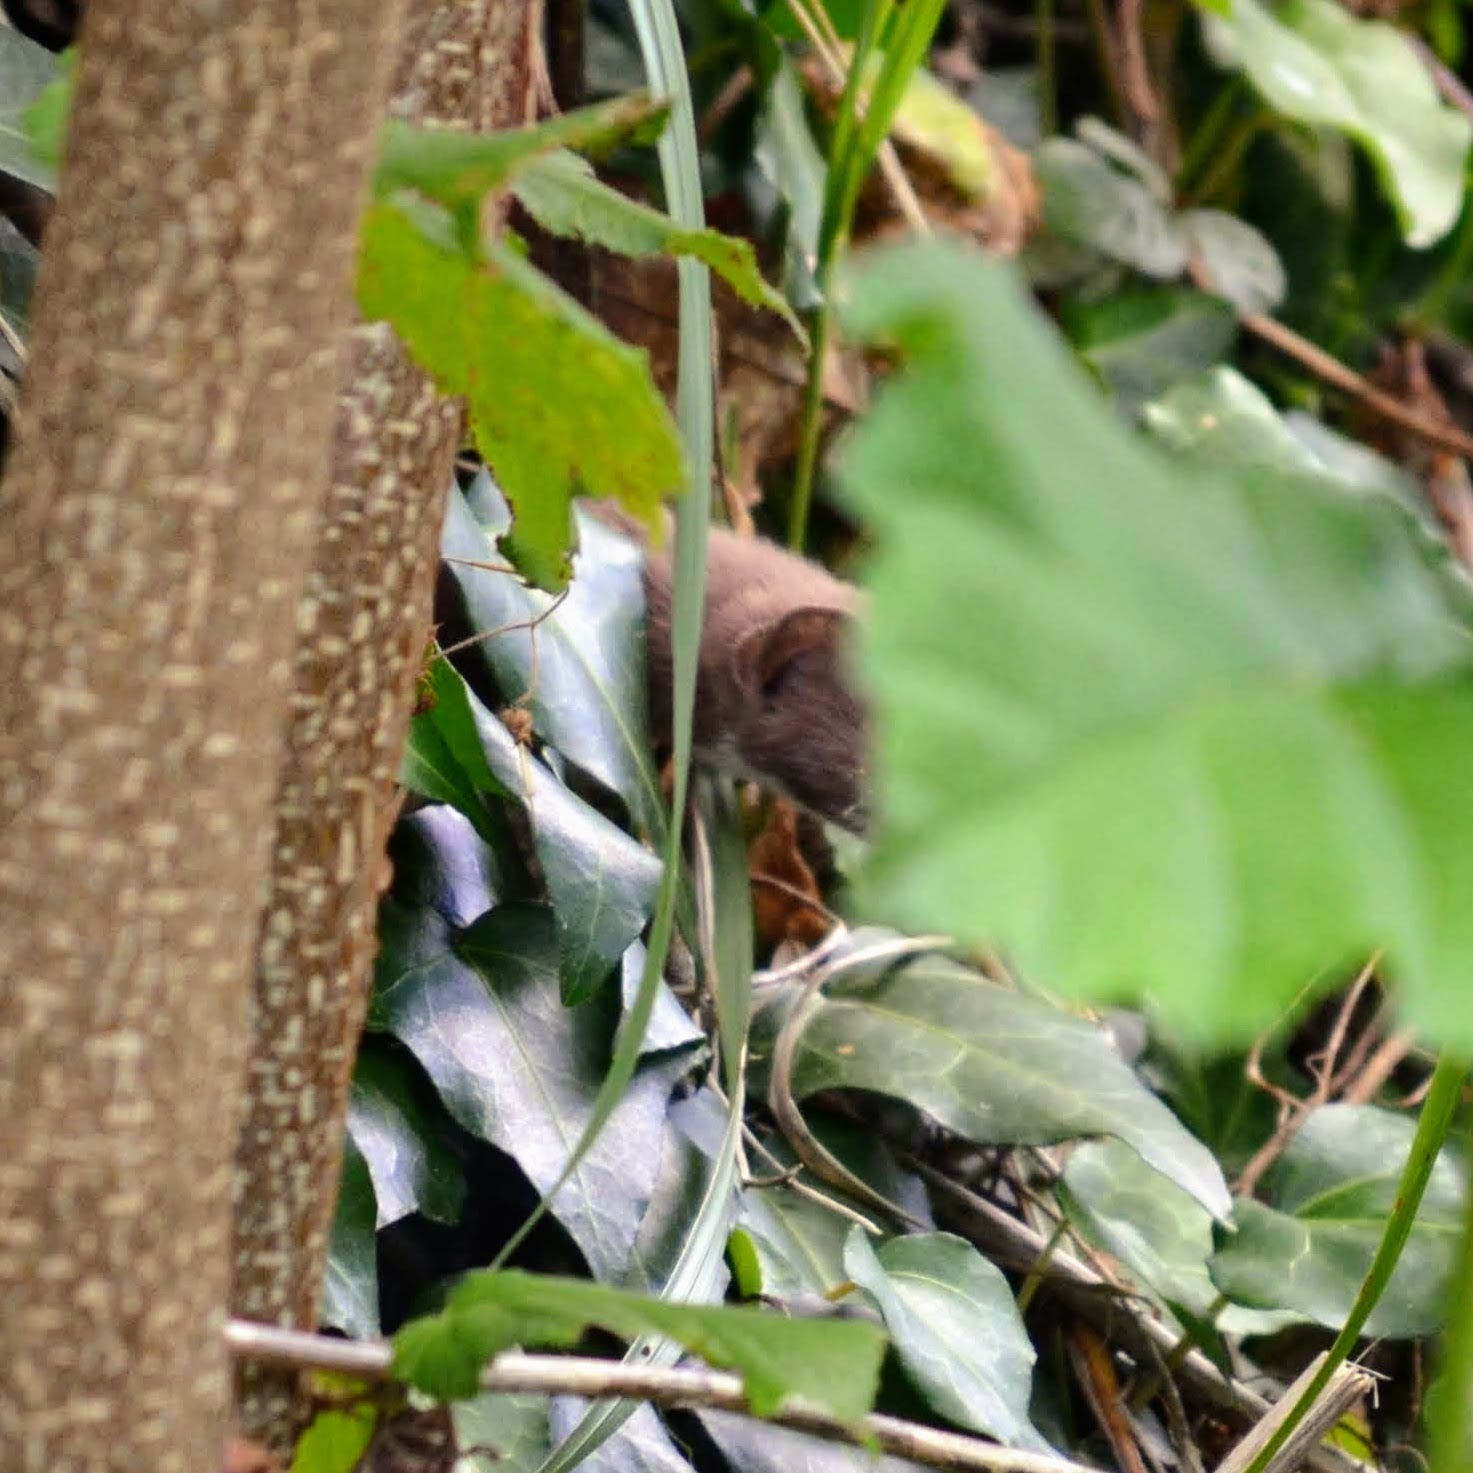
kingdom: Animalia
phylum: Chordata
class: Mammalia
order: Carnivora
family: Mustelidae
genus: Mustela
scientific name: Mustela nivalis
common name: Least weasel
